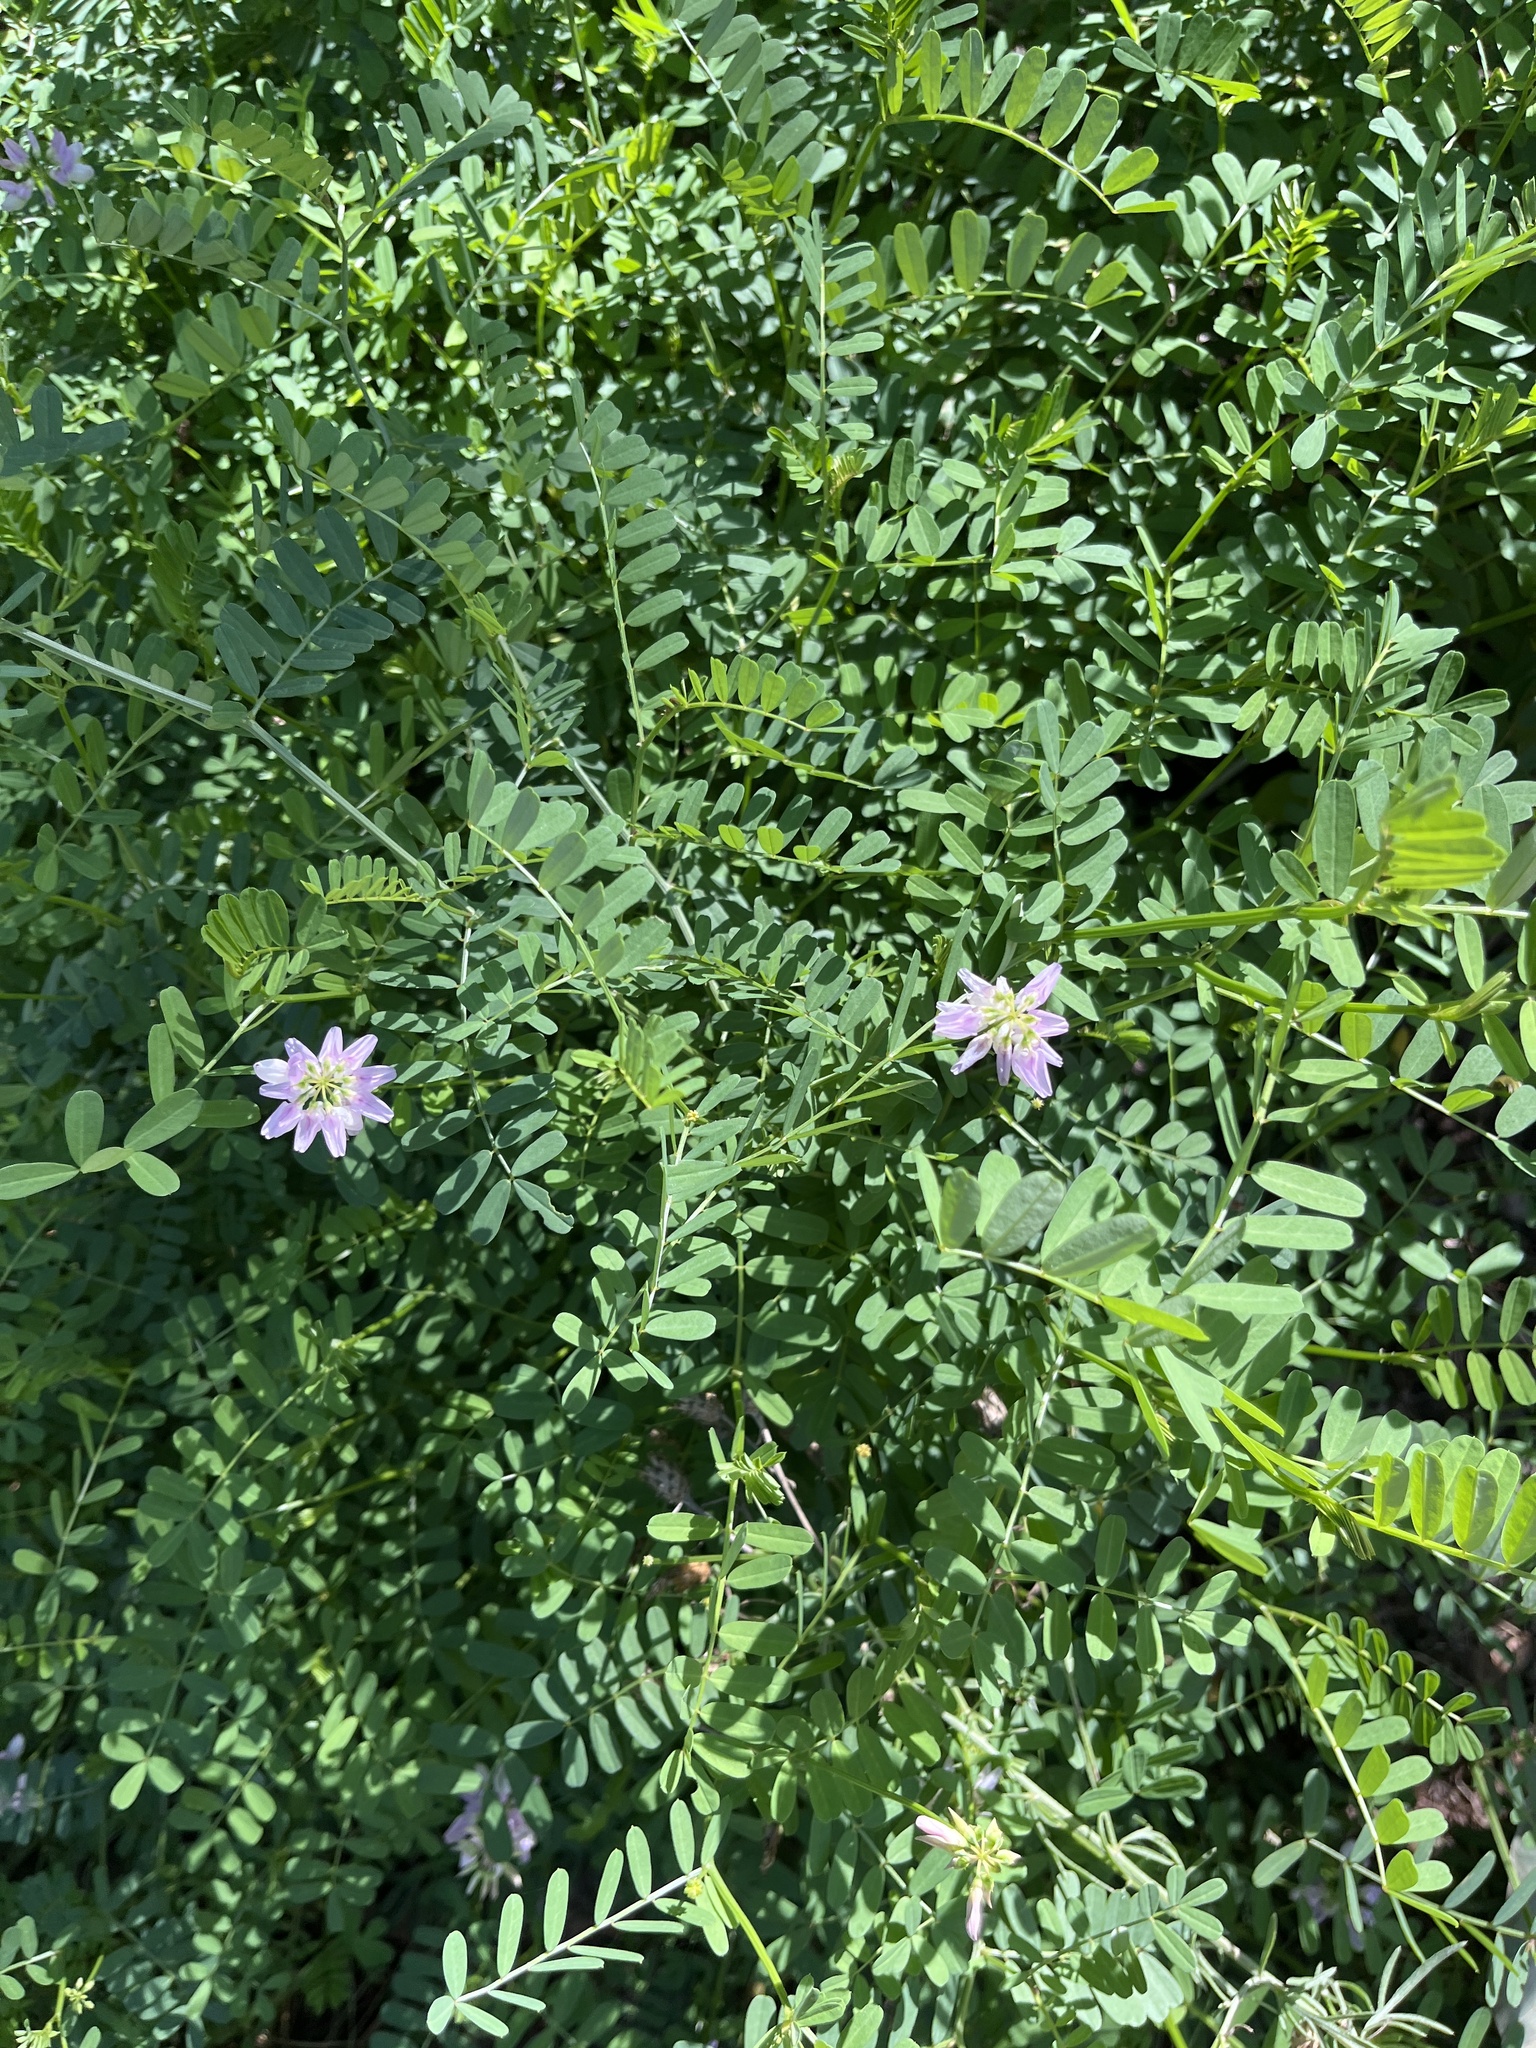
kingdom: Plantae
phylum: Tracheophyta
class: Magnoliopsida
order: Fabales
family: Fabaceae
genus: Coronilla
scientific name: Coronilla varia
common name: Crownvetch
